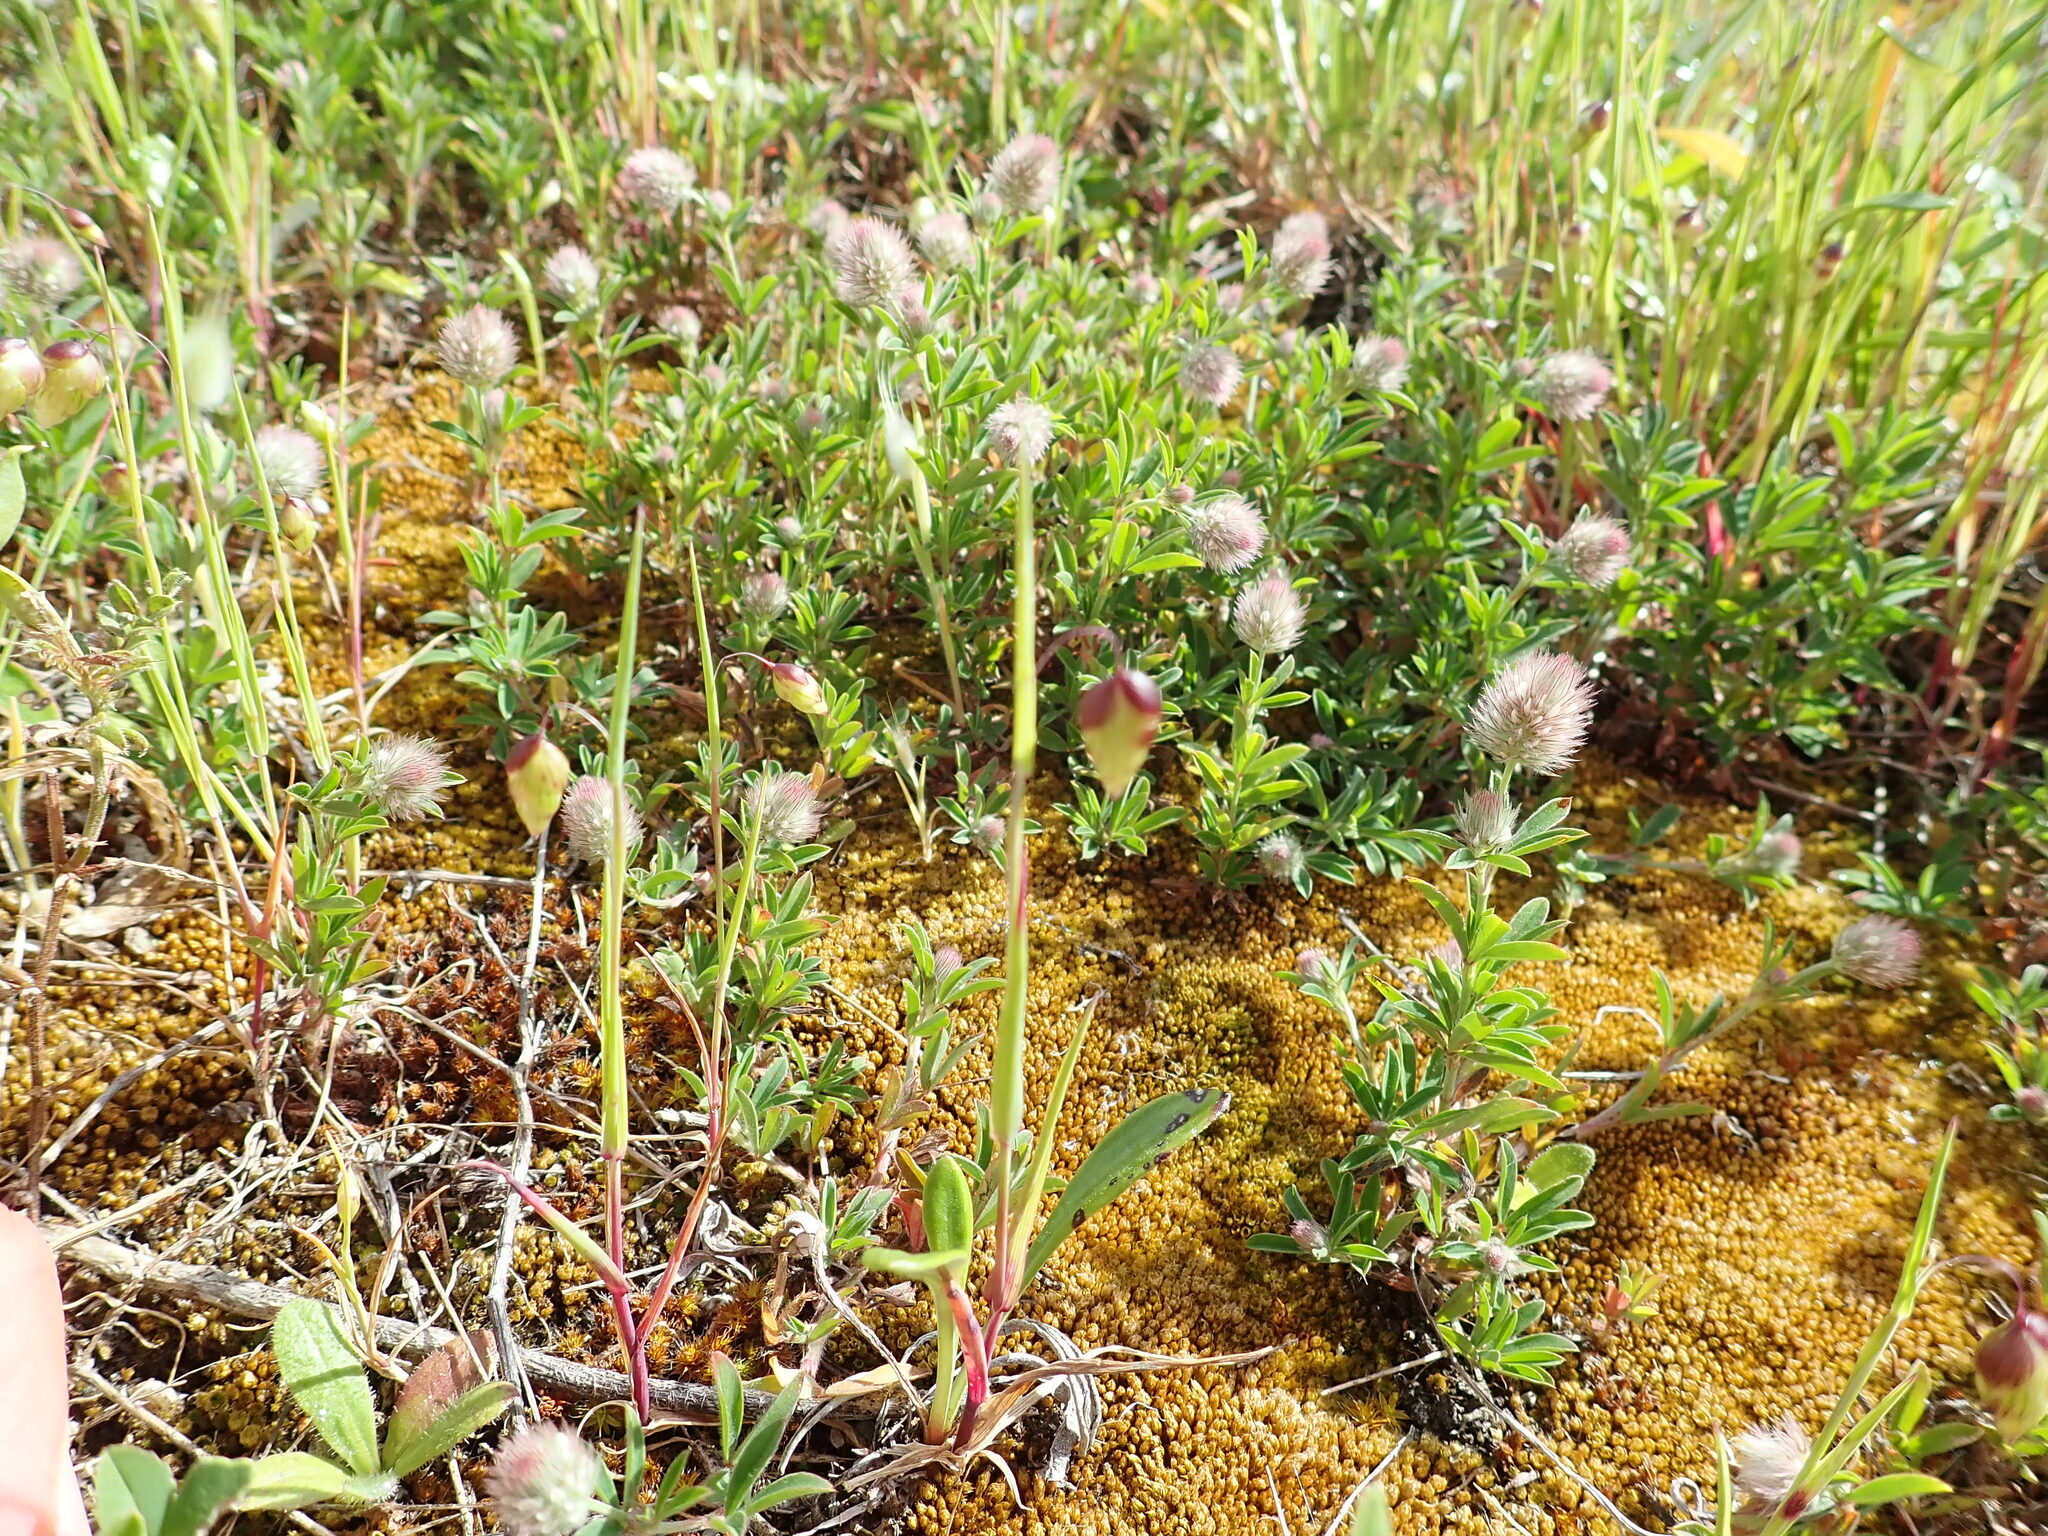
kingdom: Plantae
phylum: Tracheophyta
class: Magnoliopsida
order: Fabales
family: Fabaceae
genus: Trifolium
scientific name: Trifolium arvense
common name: Hare's-foot clover
